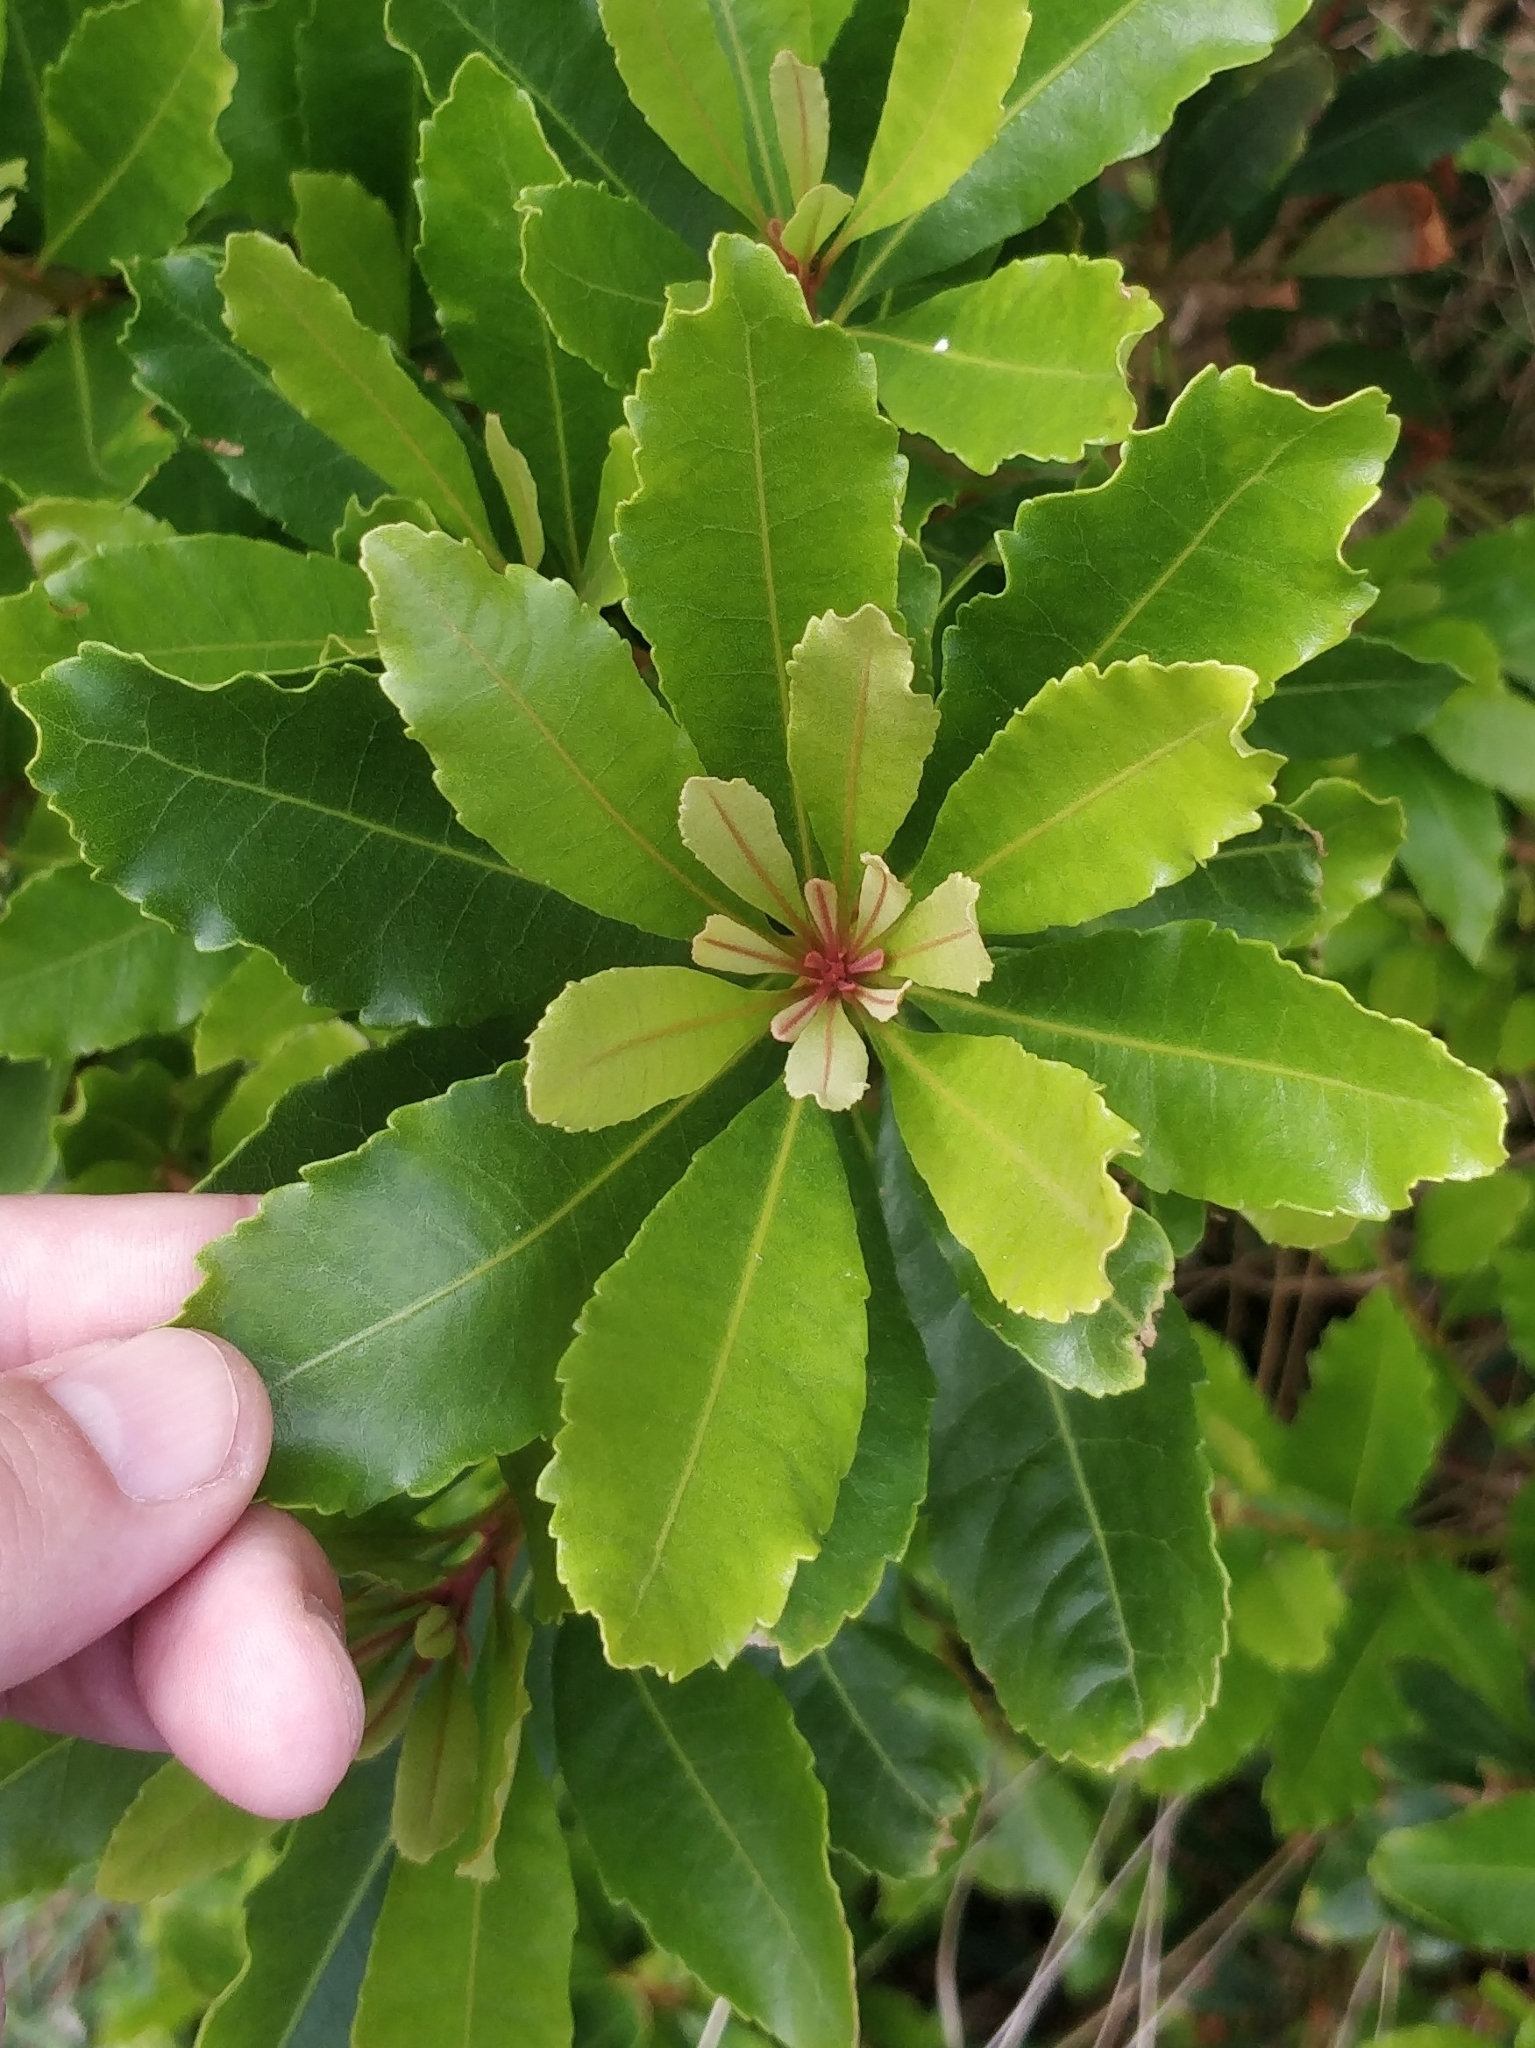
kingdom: Plantae
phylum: Tracheophyta
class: Magnoliopsida
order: Fagales
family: Myricaceae
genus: Morella
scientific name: Morella faya
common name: Firetree
